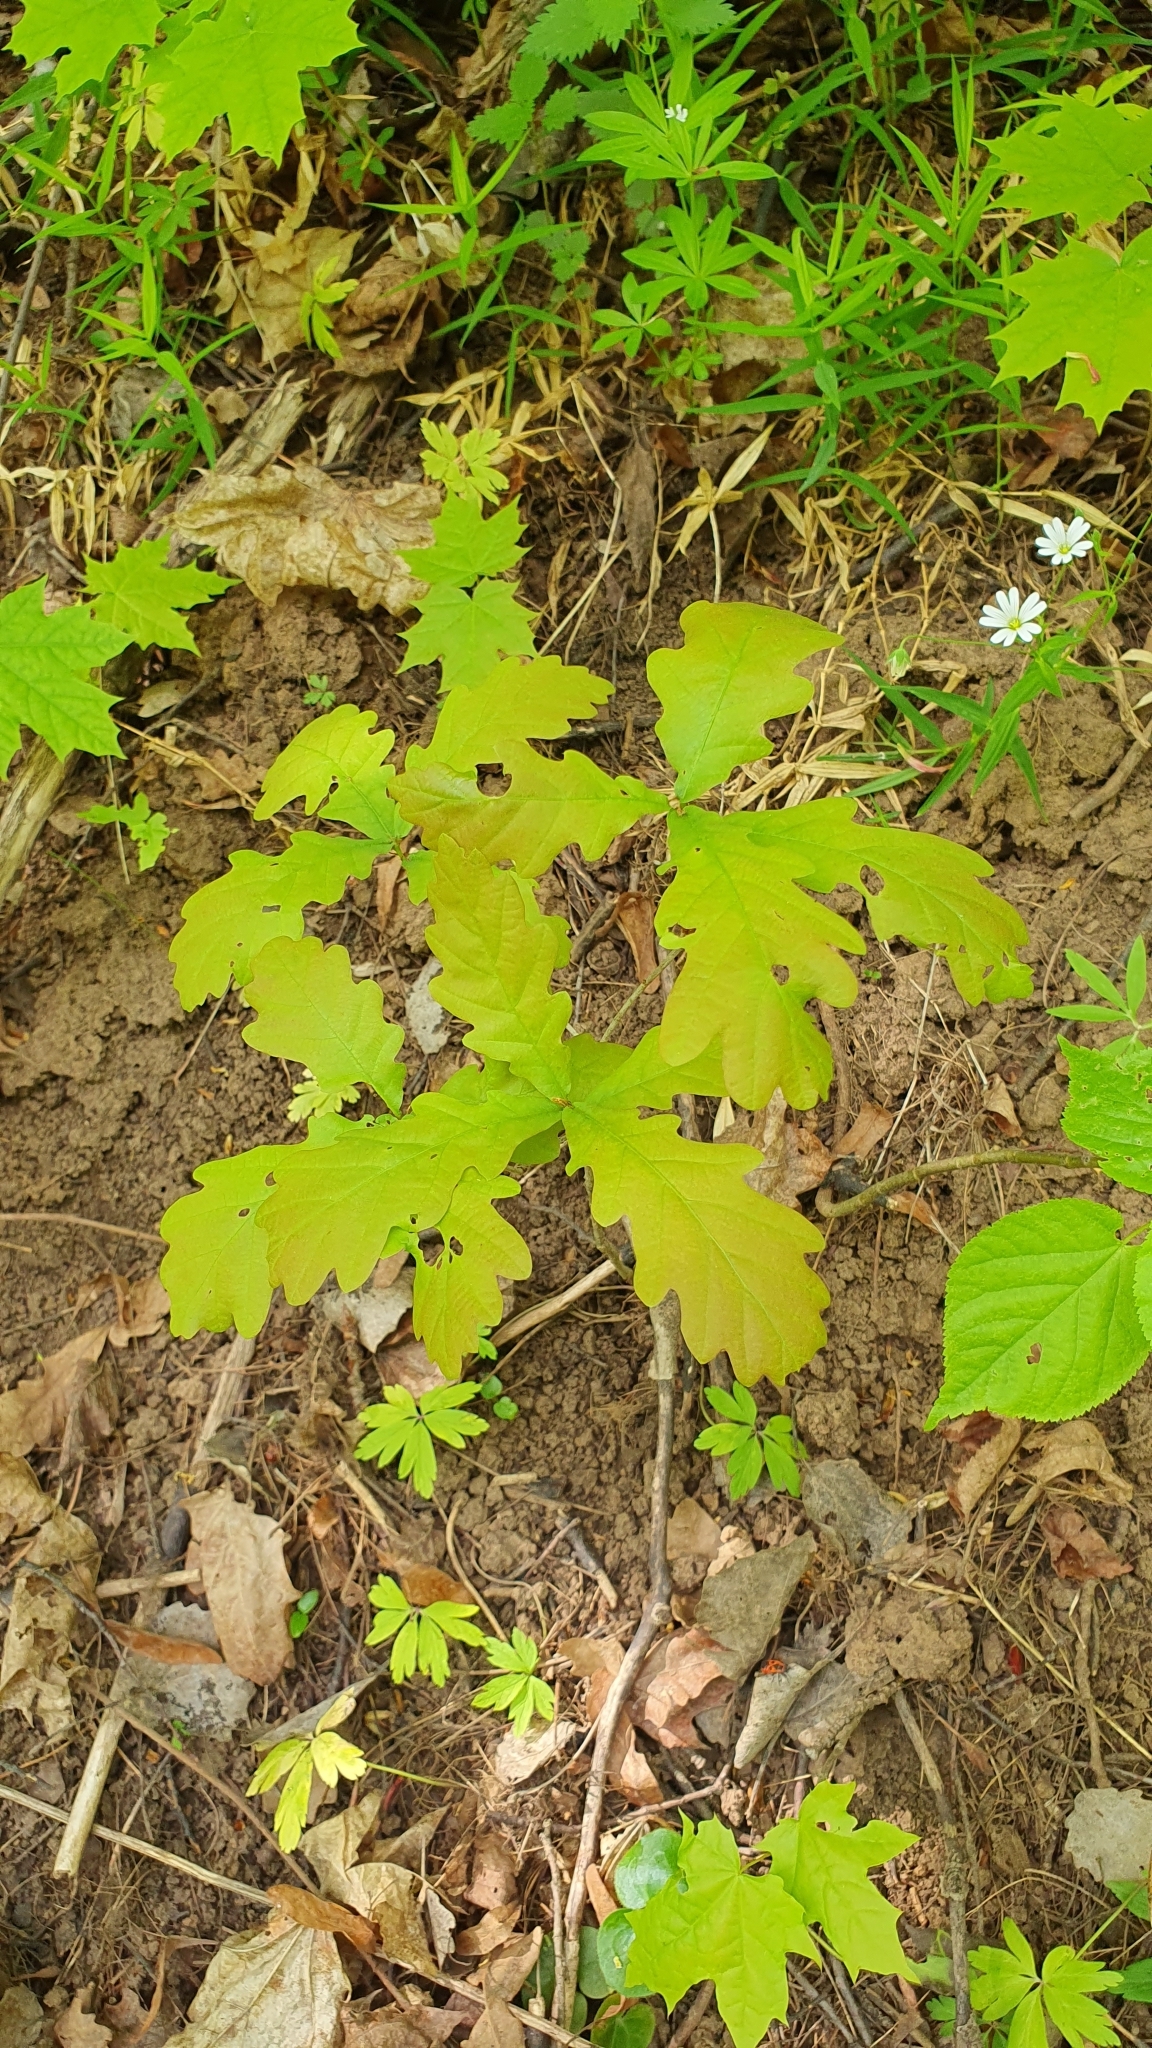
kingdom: Plantae
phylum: Tracheophyta
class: Magnoliopsida
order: Fagales
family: Fagaceae
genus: Quercus
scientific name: Quercus robur
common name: Pedunculate oak
